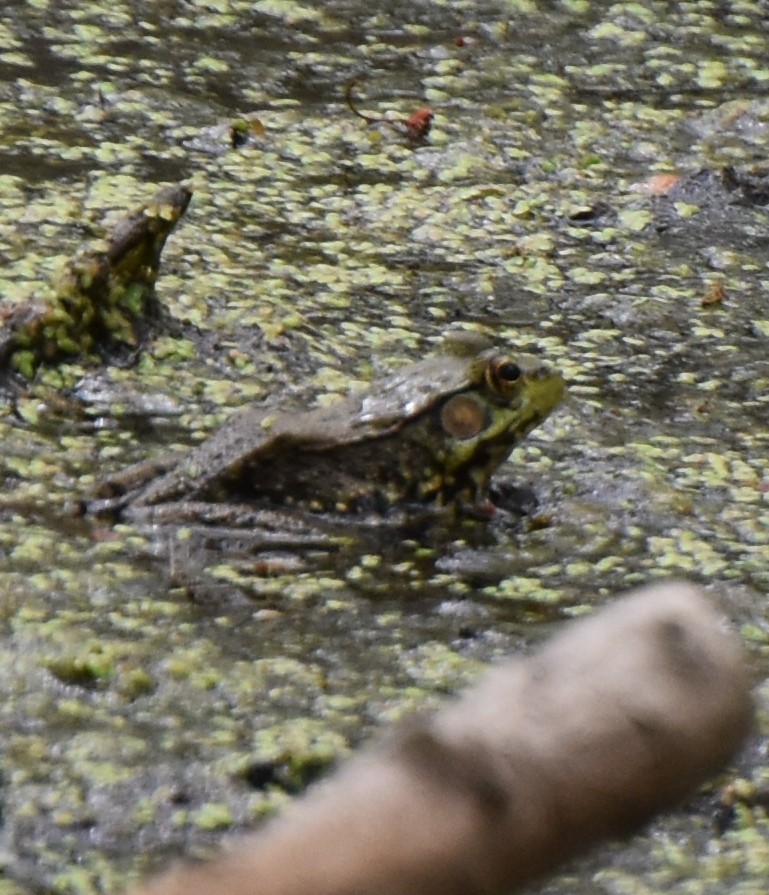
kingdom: Animalia
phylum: Chordata
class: Amphibia
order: Anura
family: Ranidae
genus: Lithobates
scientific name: Lithobates clamitans
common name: Green frog
